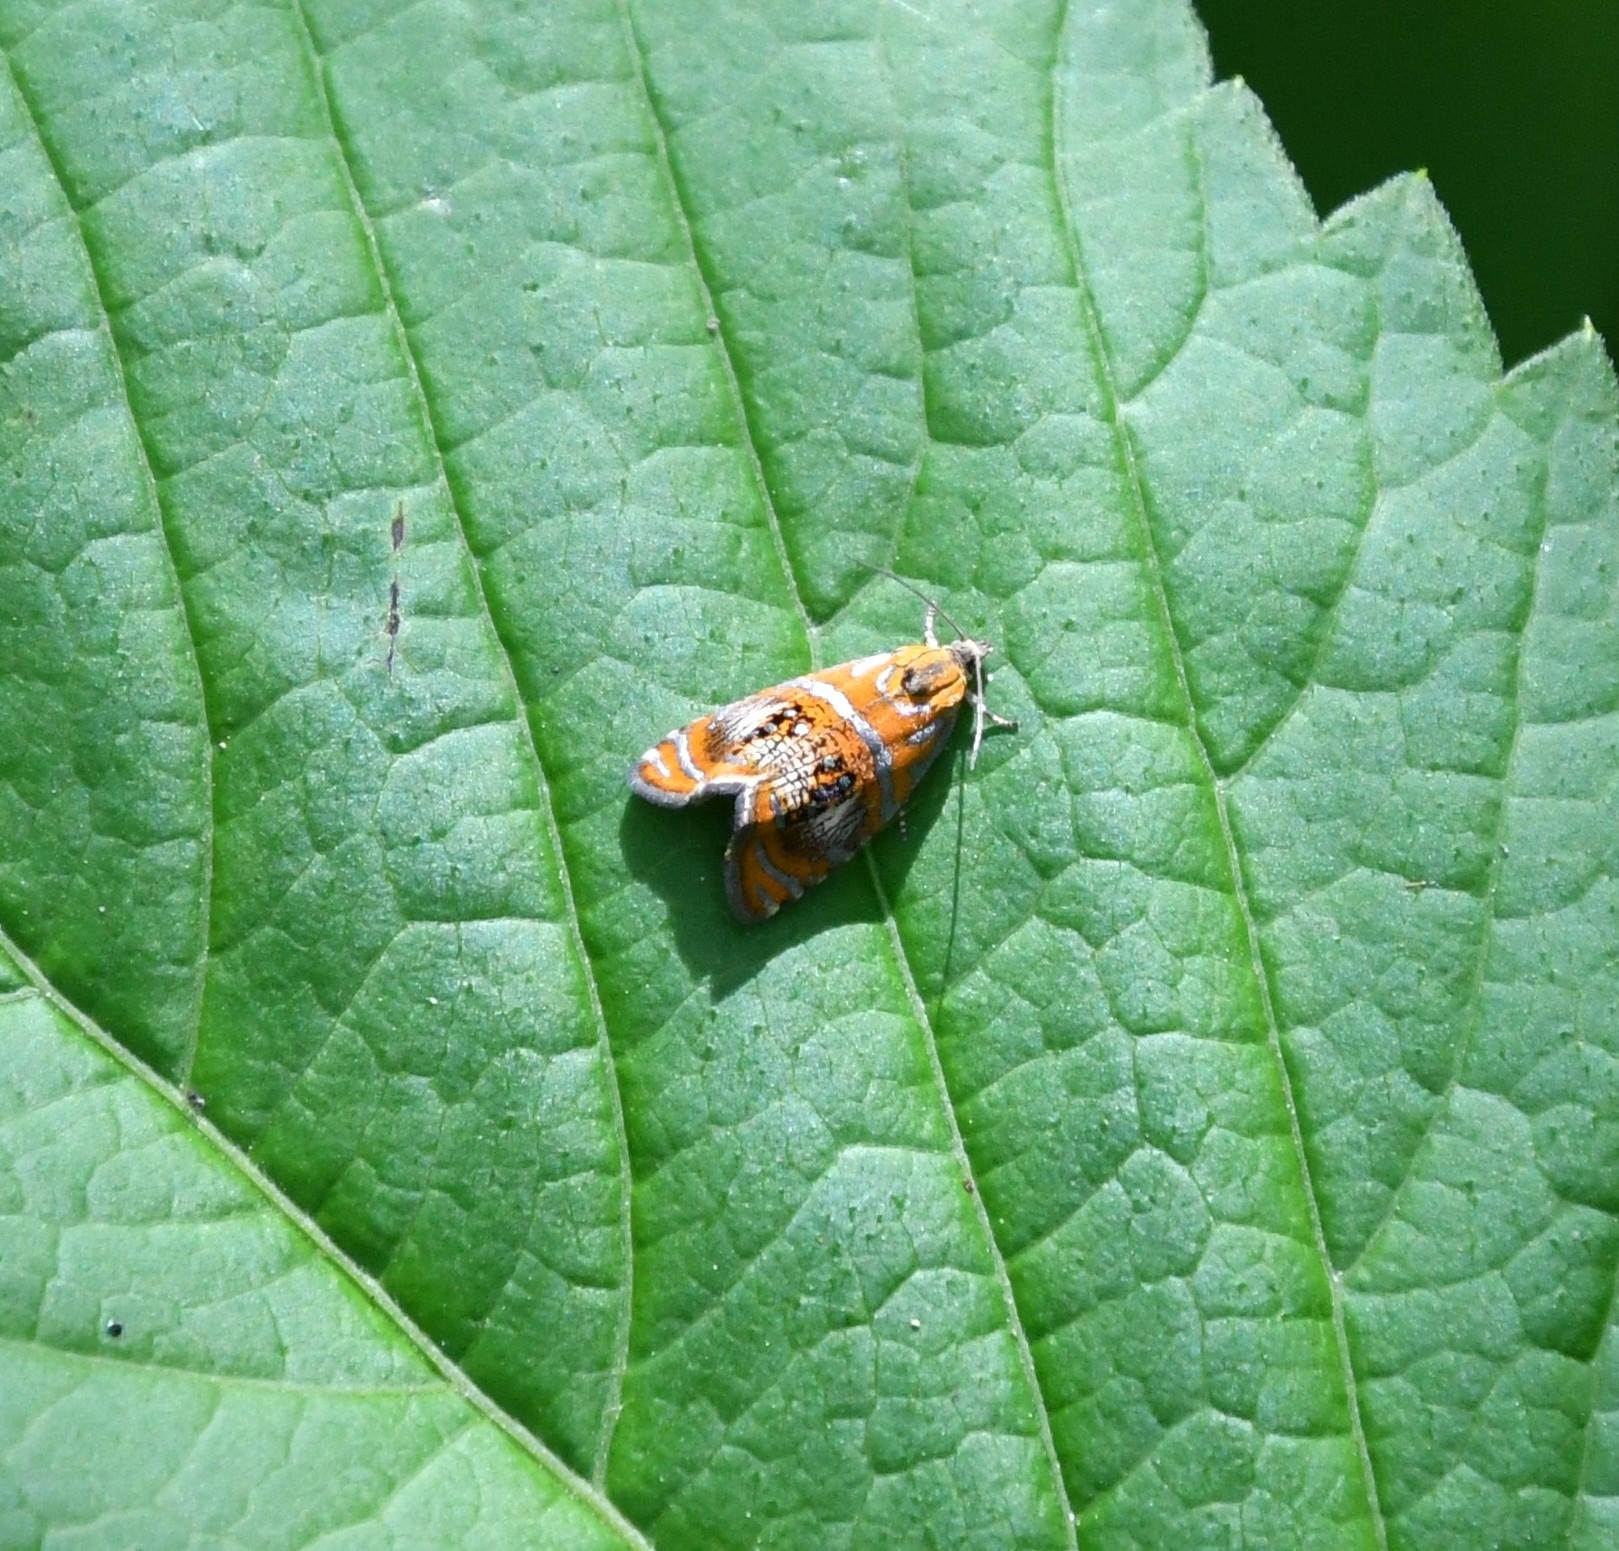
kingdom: Animalia
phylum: Arthropoda
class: Insecta
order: Lepidoptera
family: Tortricidae
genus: Olethreutes
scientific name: Olethreutes arcuella
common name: Arched marble
